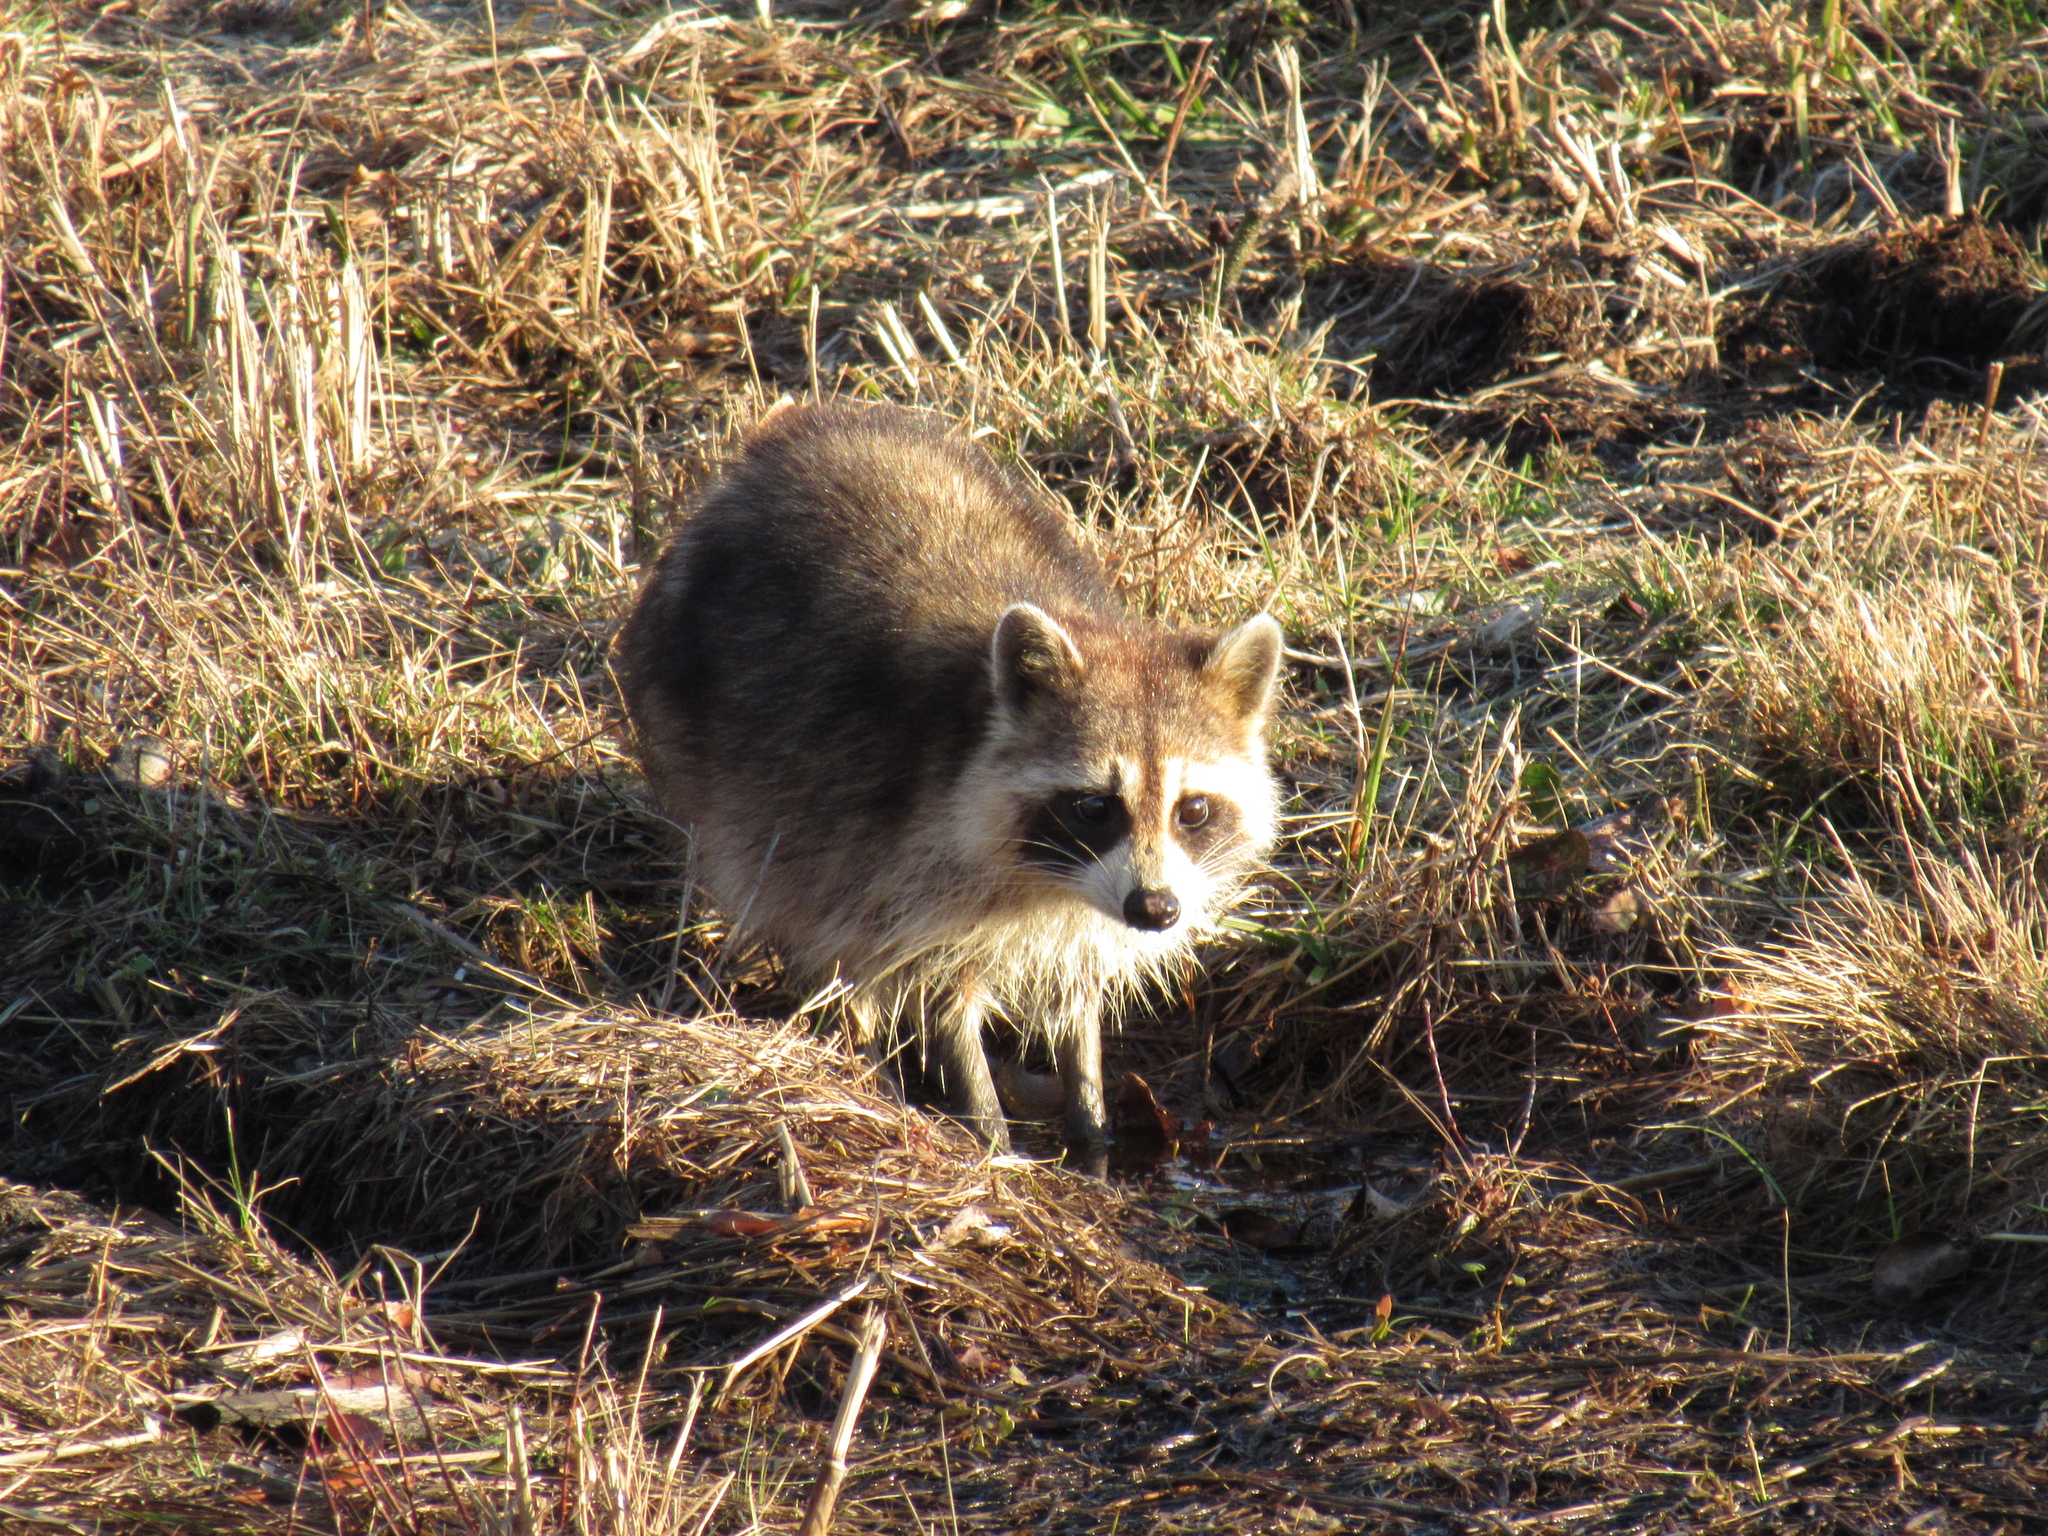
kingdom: Animalia
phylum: Chordata
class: Mammalia
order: Carnivora
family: Procyonidae
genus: Procyon
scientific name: Procyon lotor
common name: Raccoon
